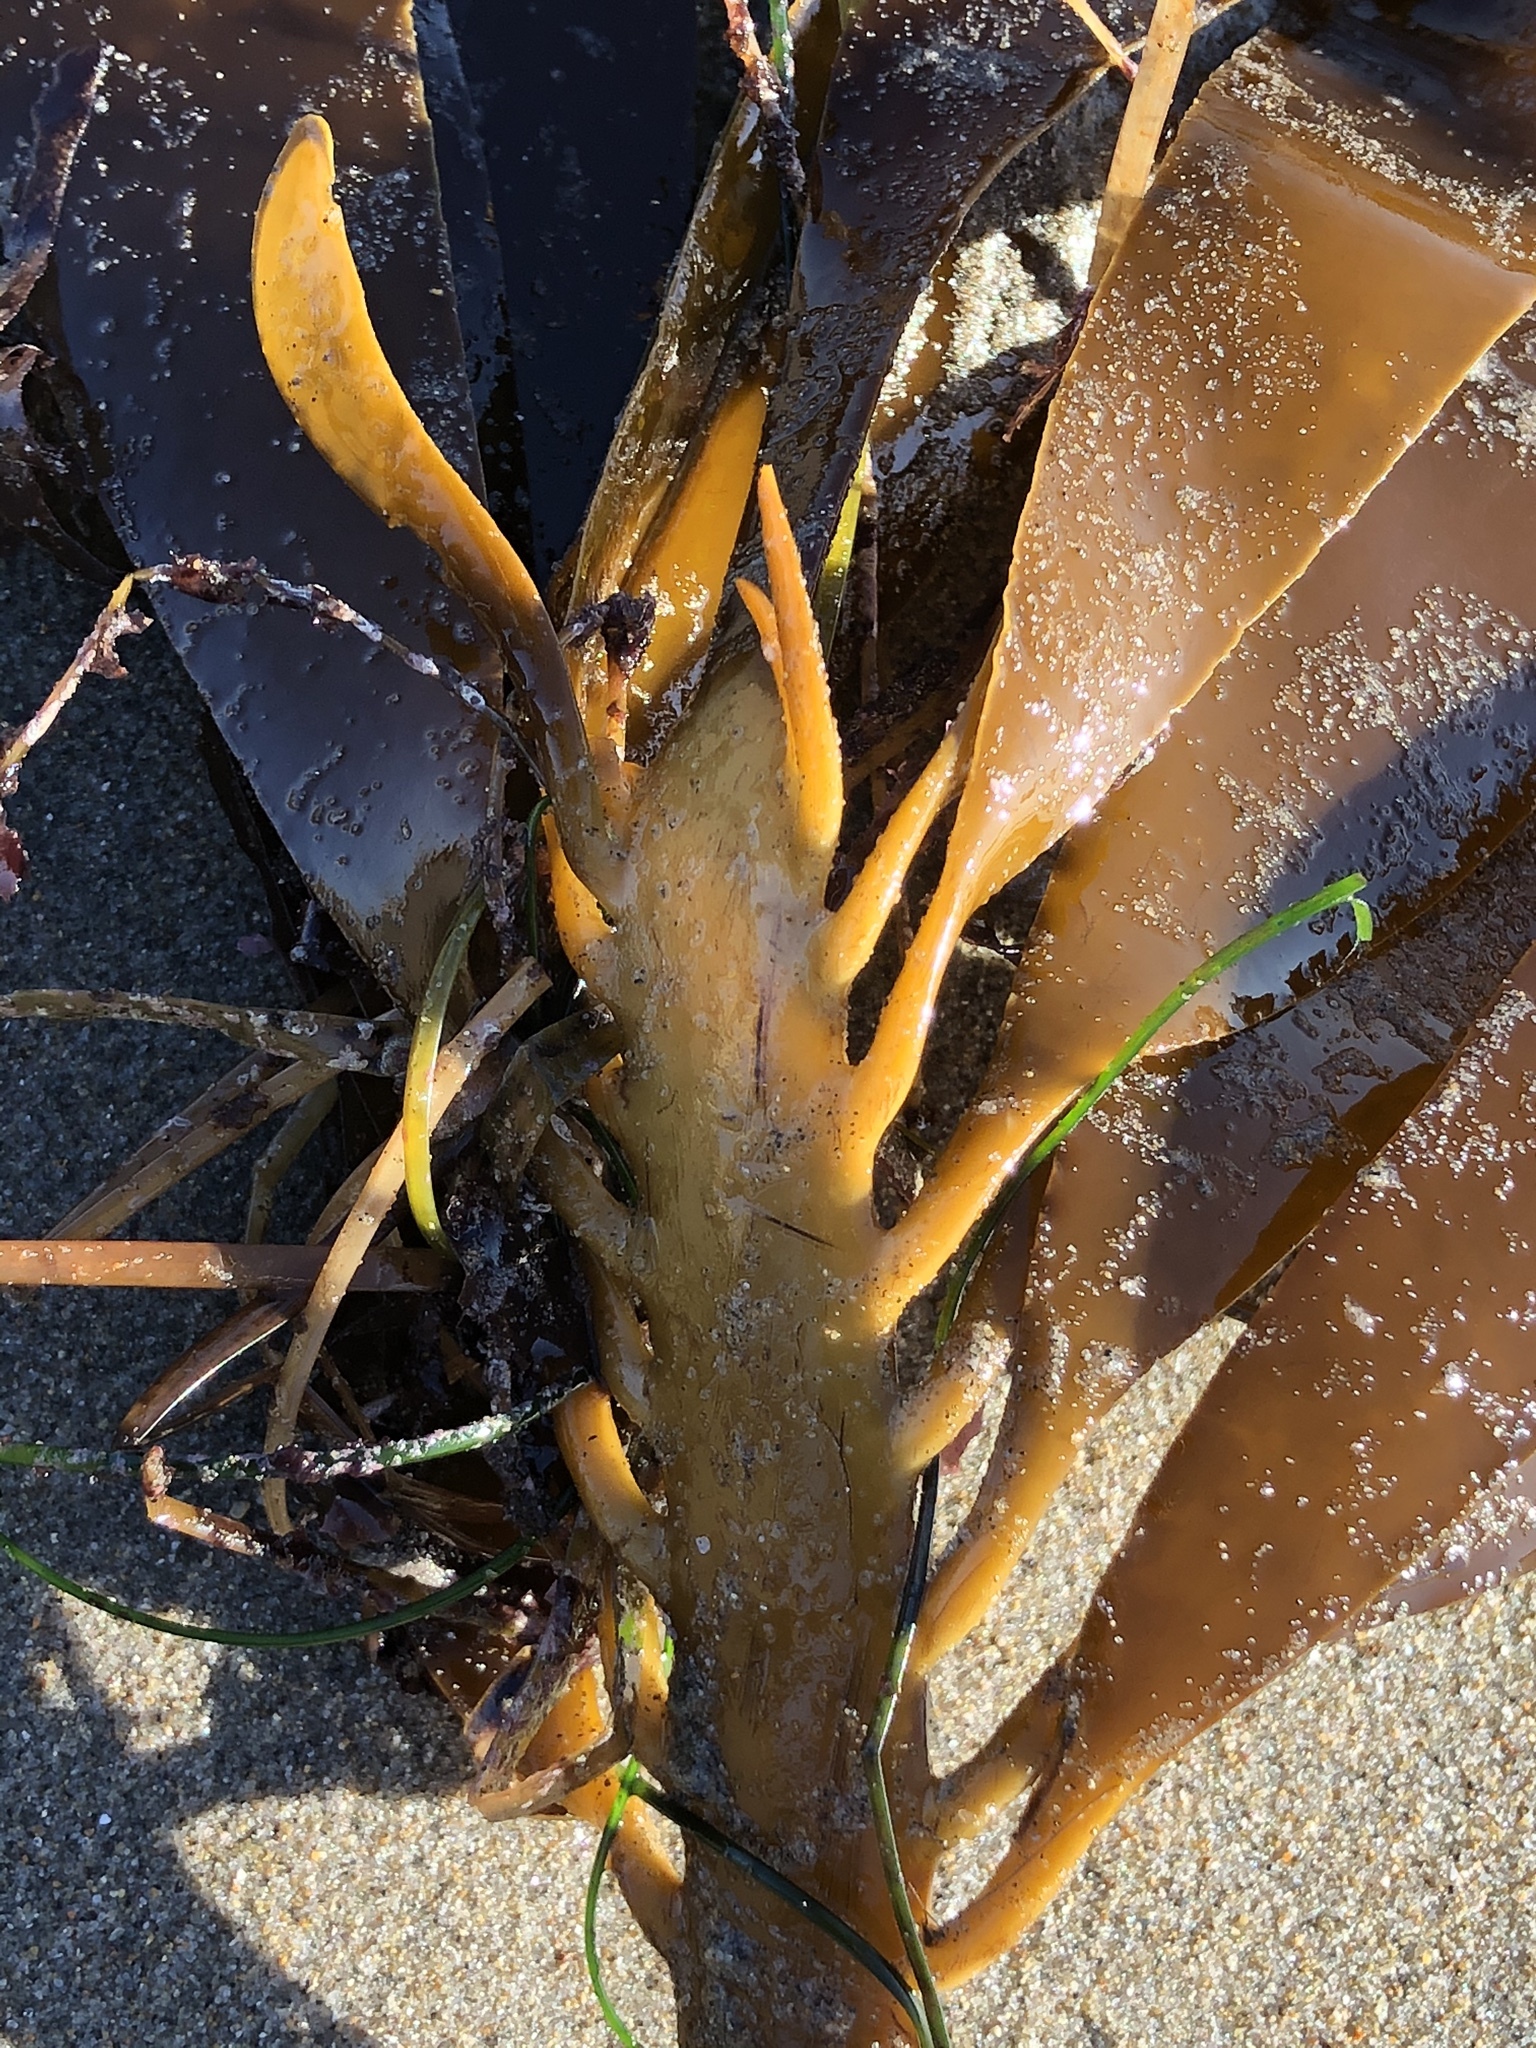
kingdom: Chromista
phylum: Ochrophyta
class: Phaeophyceae
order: Laminariales
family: Alariaceae
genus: Pterygophora
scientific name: Pterygophora californica
